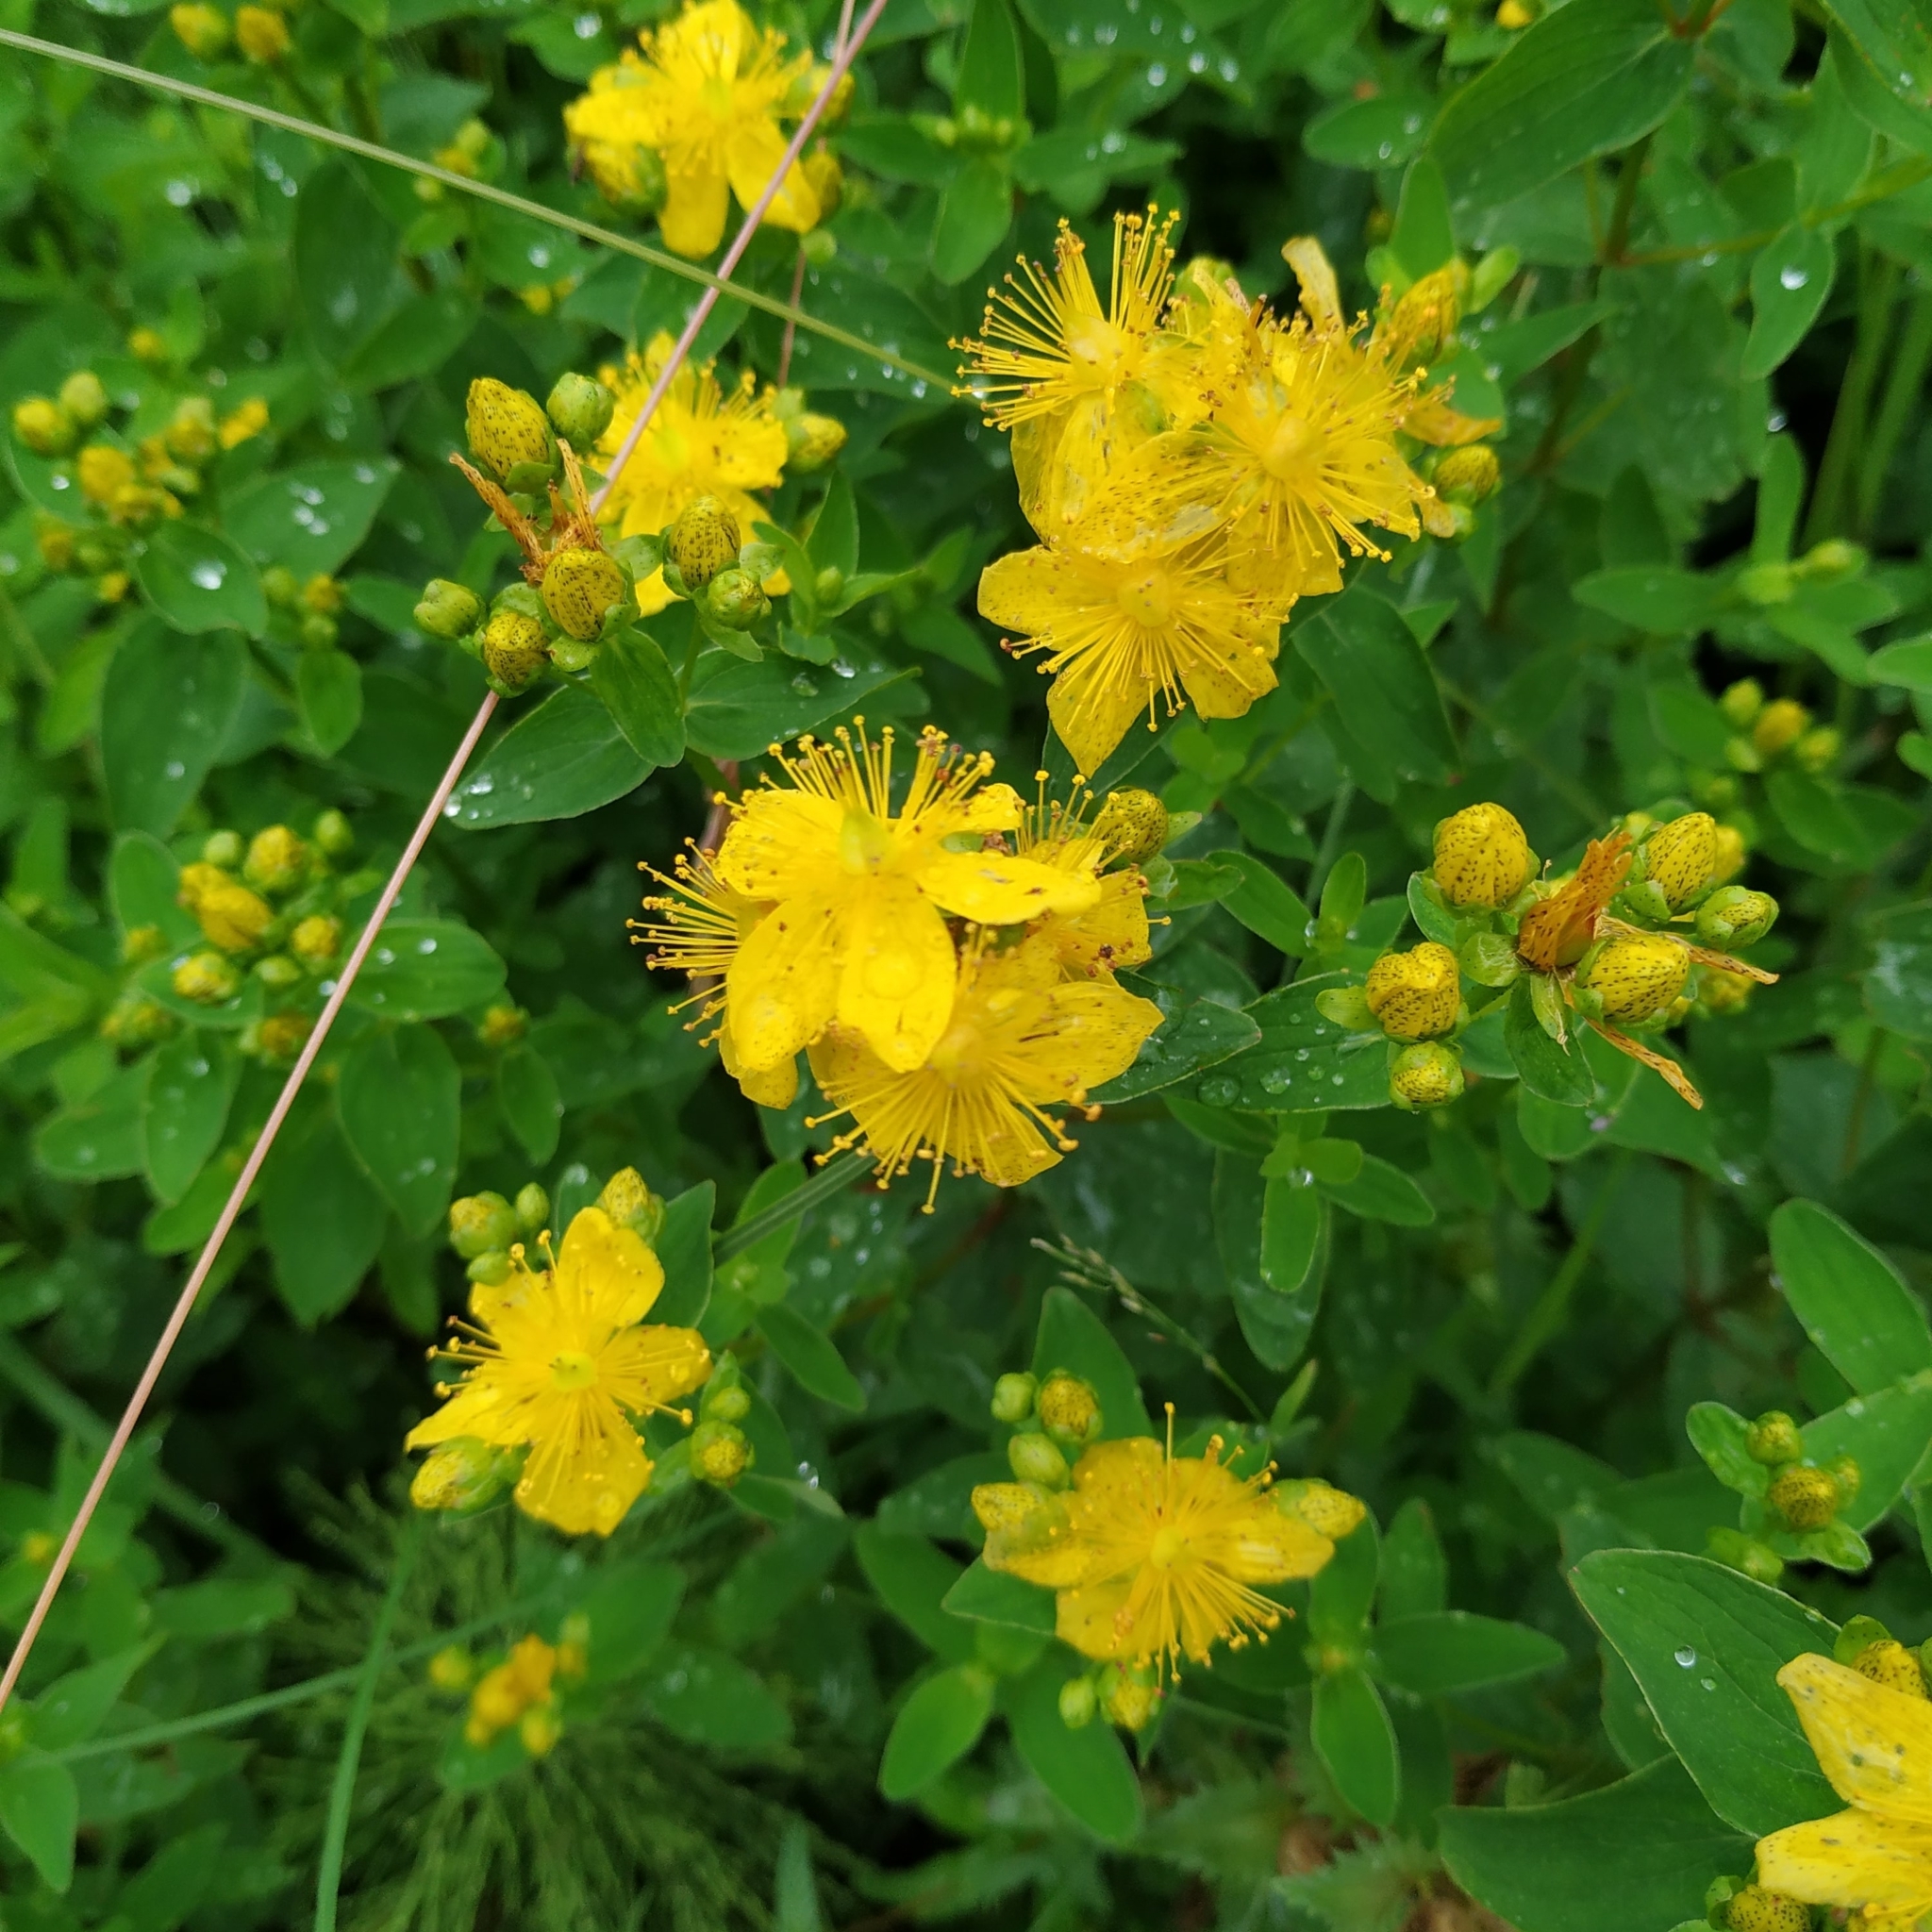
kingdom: Plantae
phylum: Tracheophyta
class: Magnoliopsida
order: Malpighiales
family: Hypericaceae
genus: Hypericum
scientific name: Hypericum maculatum
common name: Imperforate st. john's-wort
